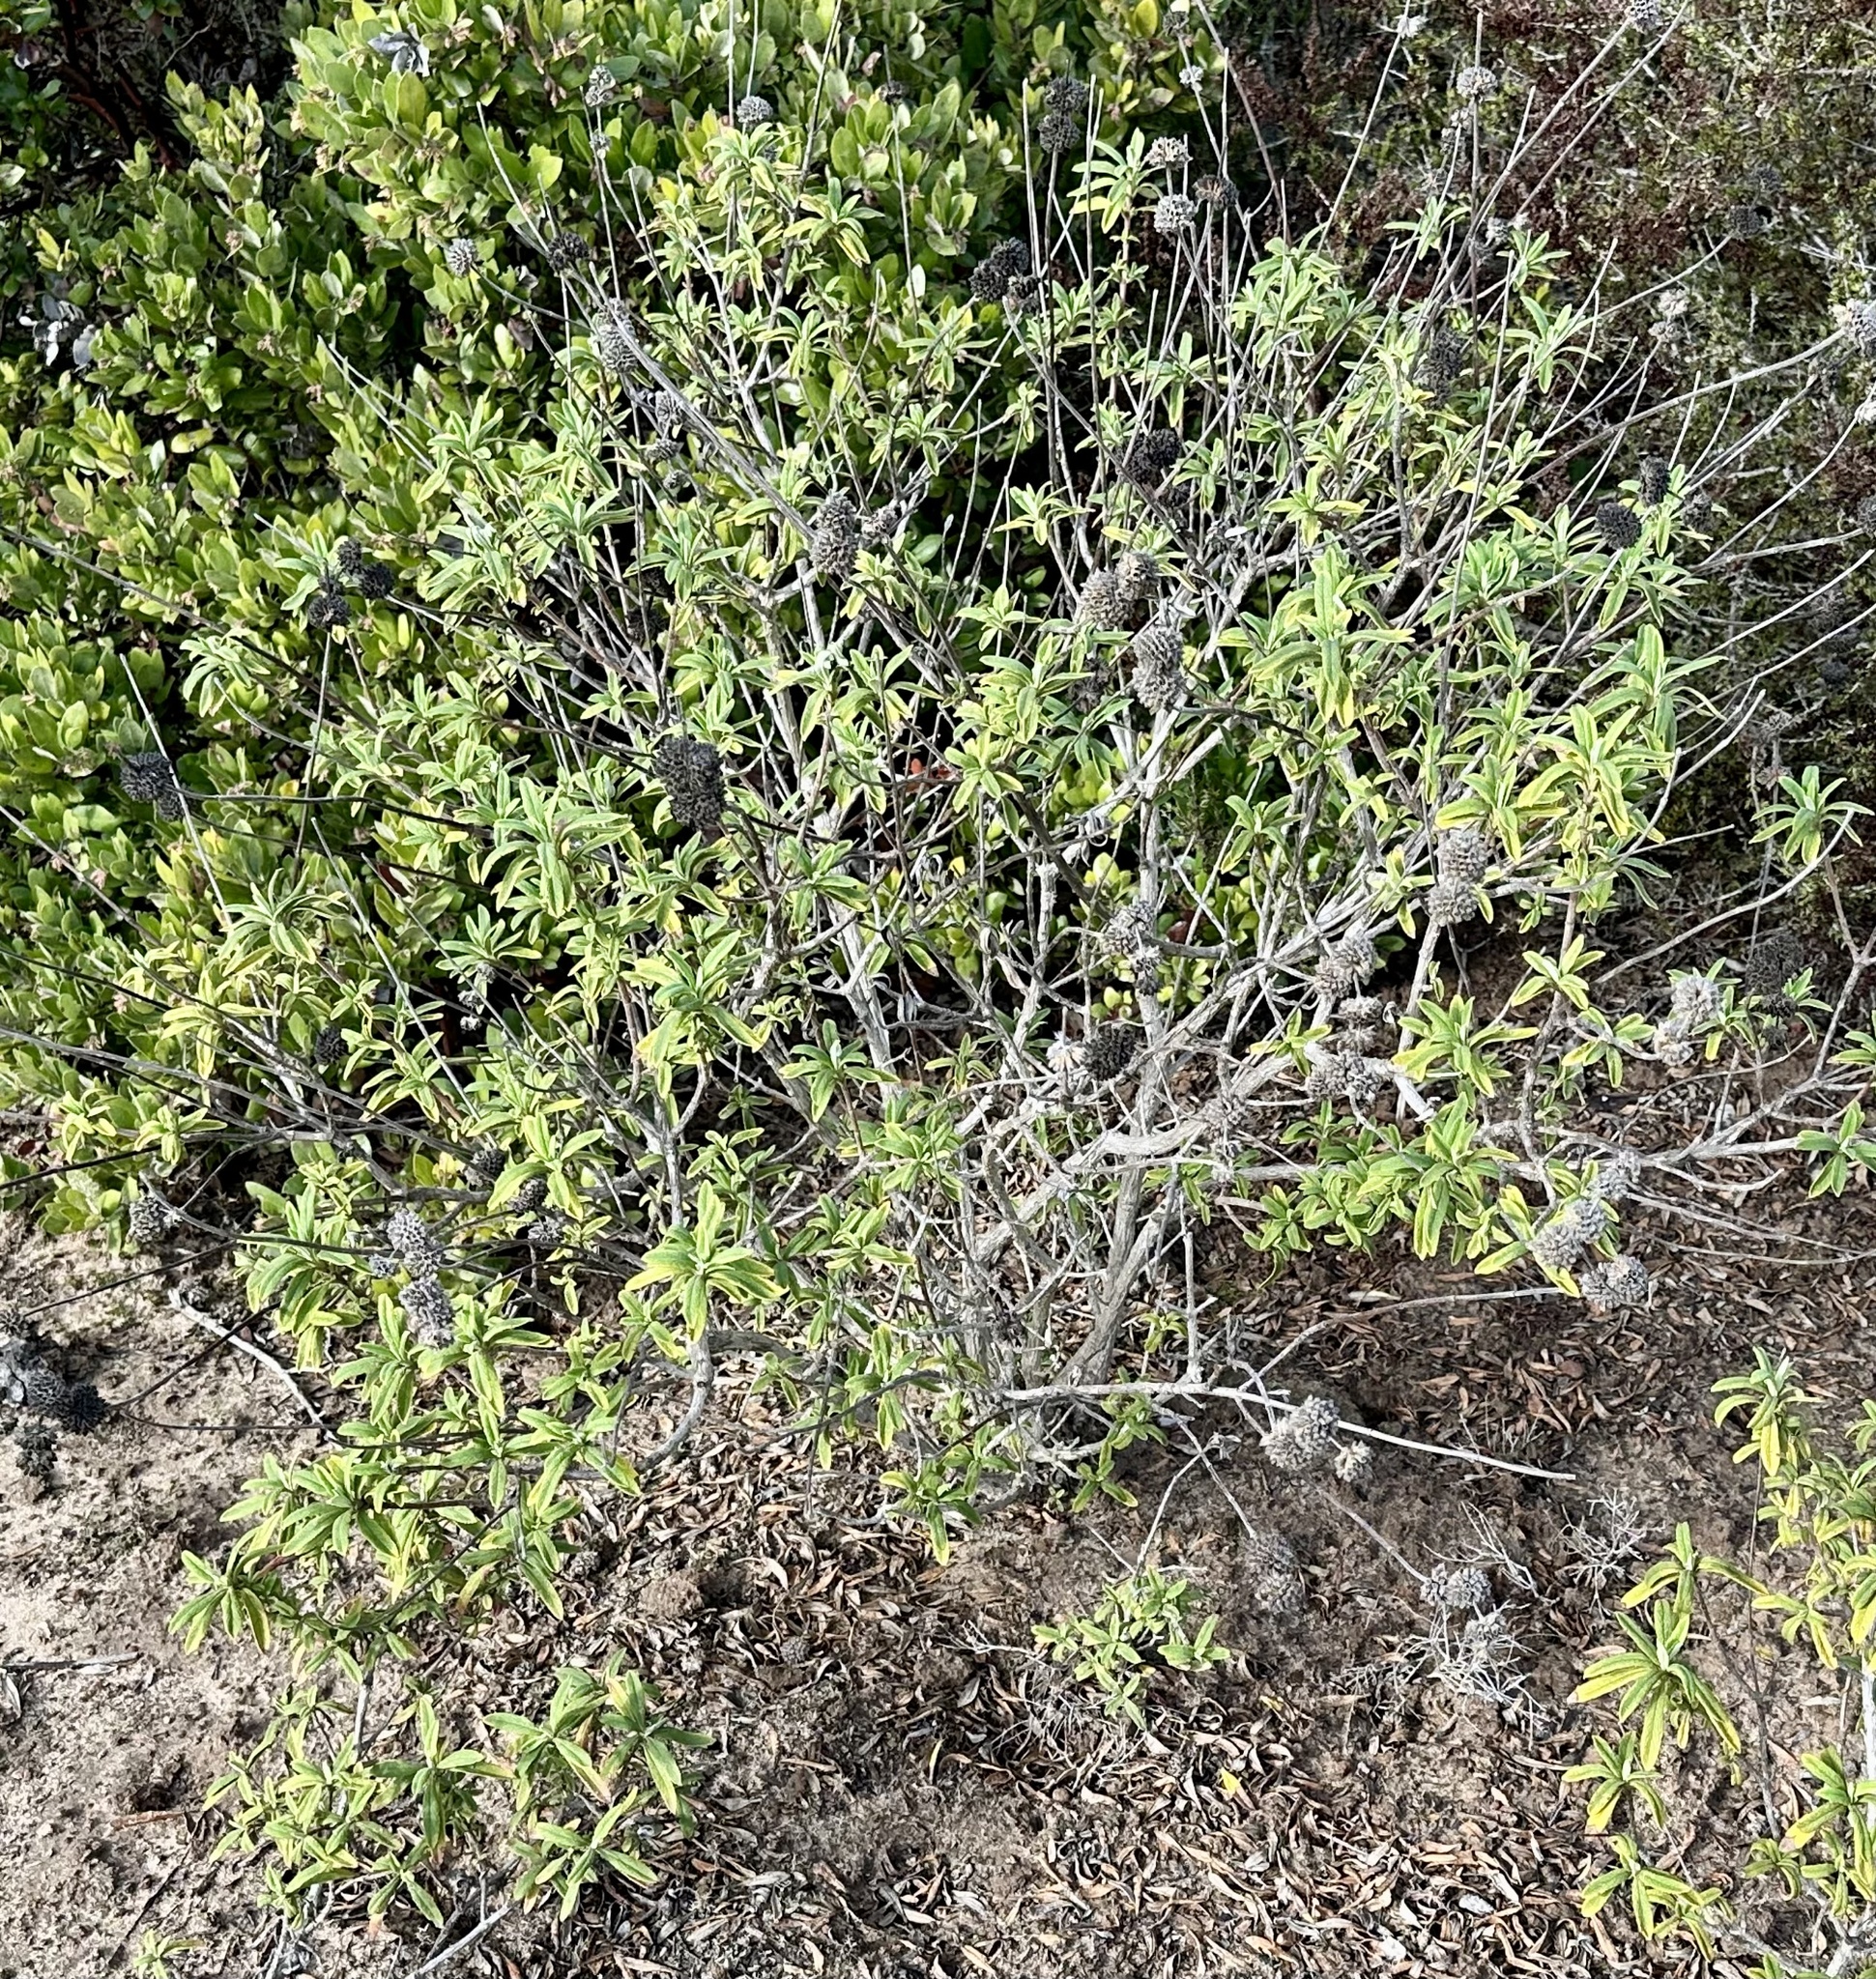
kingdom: Plantae
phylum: Tracheophyta
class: Magnoliopsida
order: Lamiales
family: Lamiaceae
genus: Salvia
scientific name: Salvia mellifera
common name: Black sage
